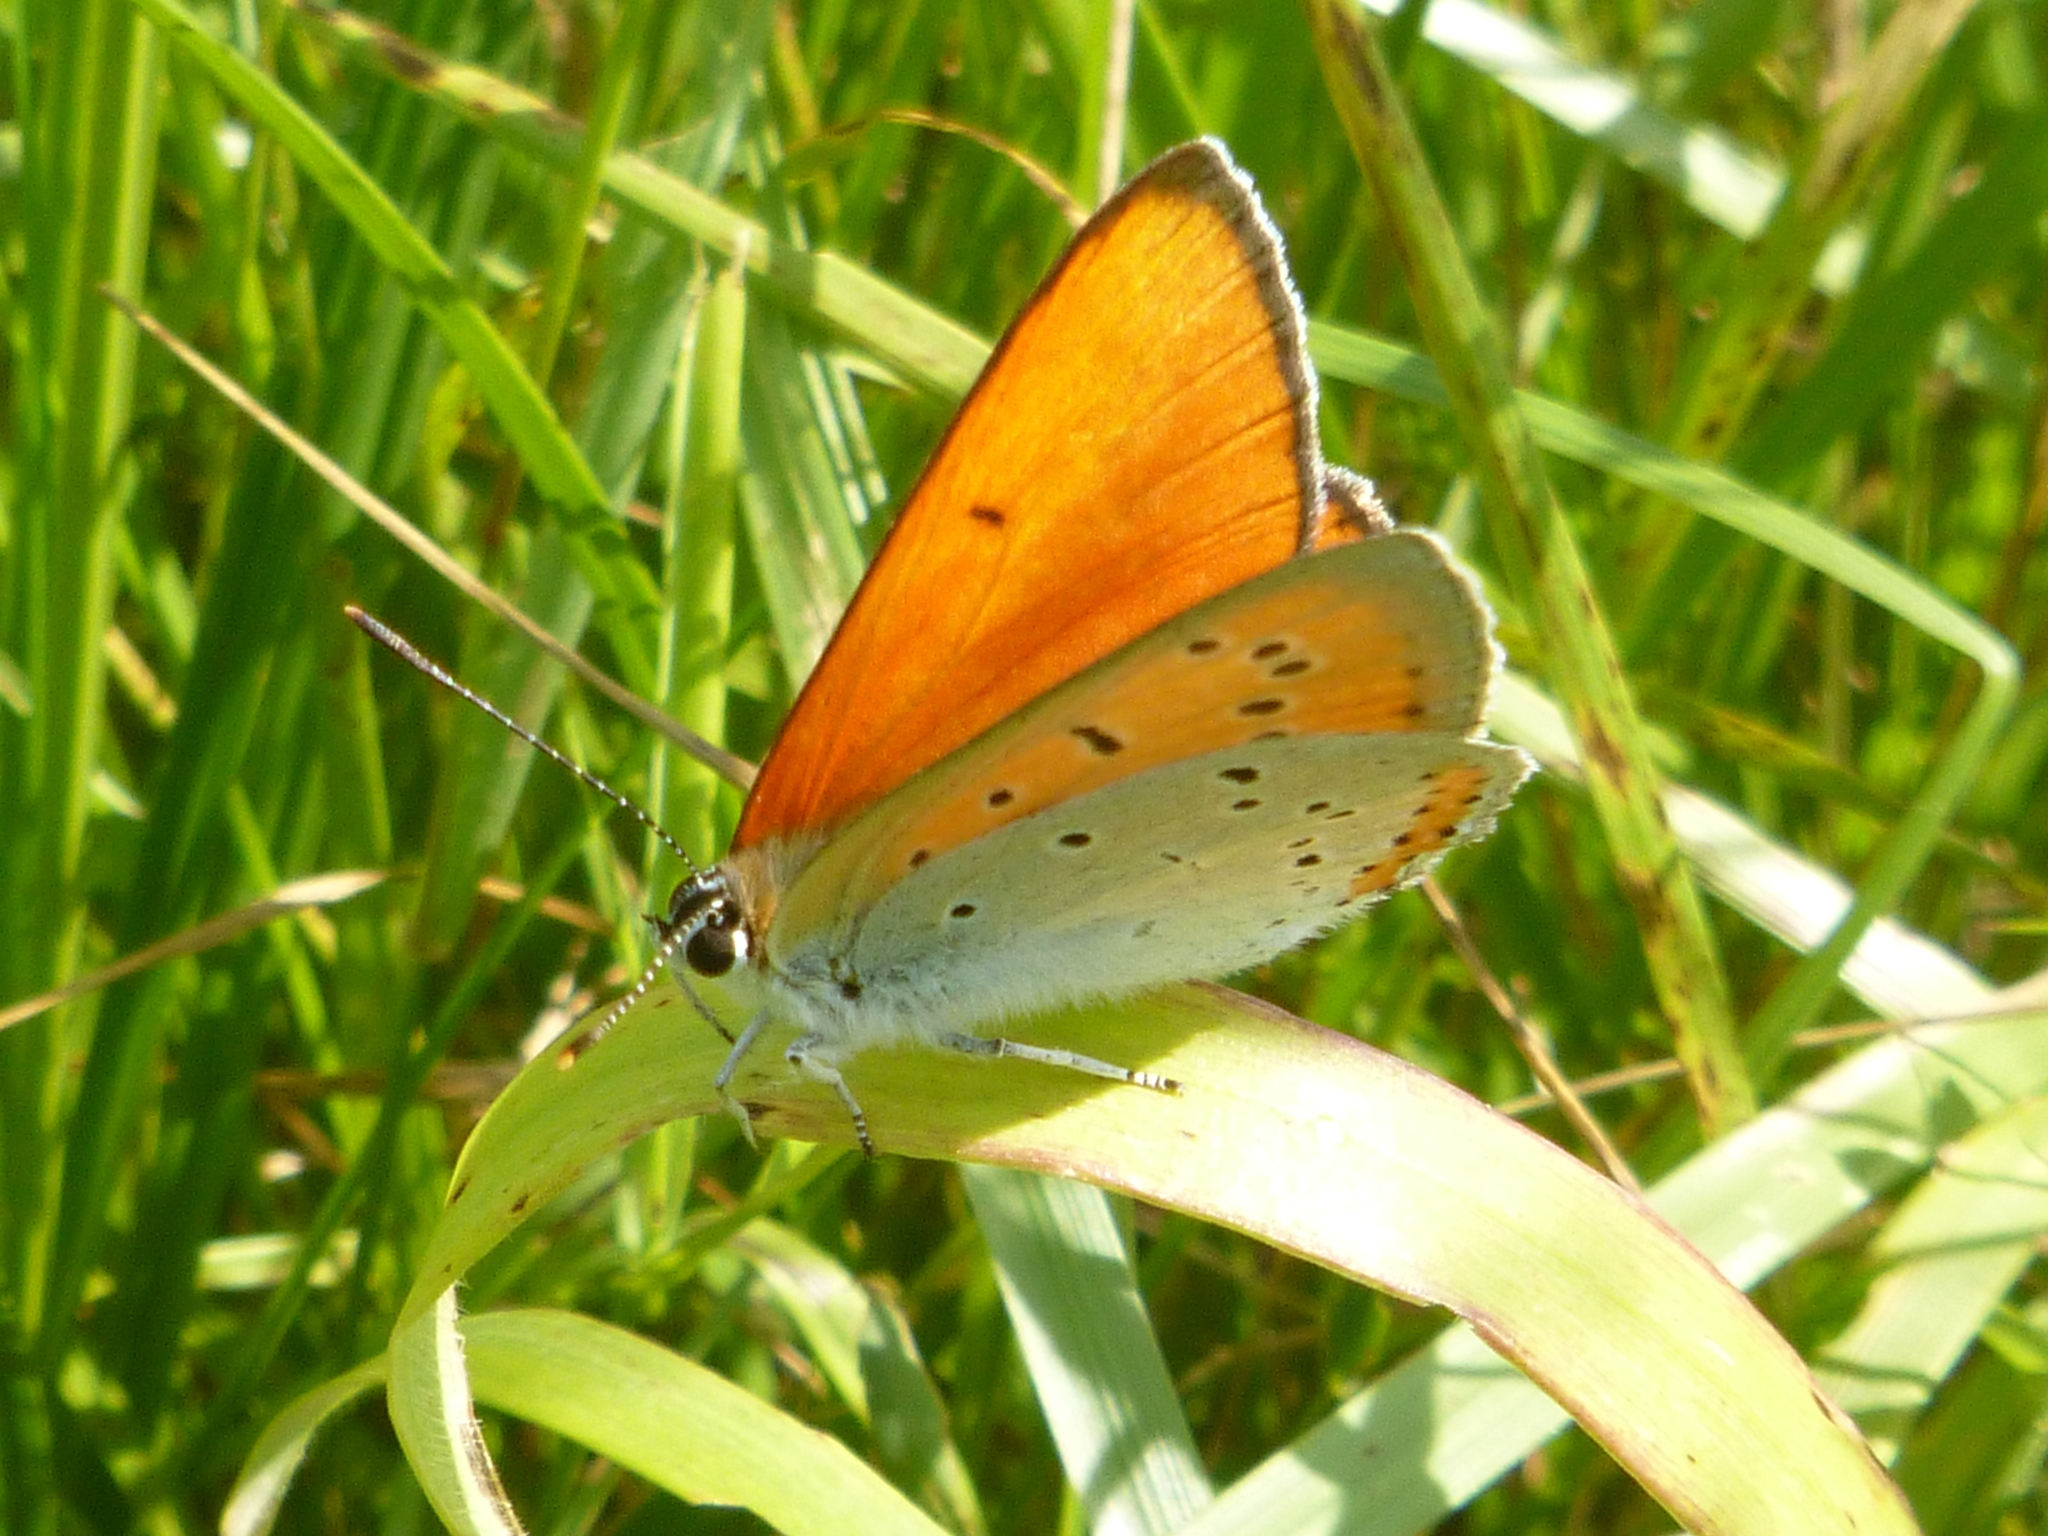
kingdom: Animalia
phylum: Arthropoda
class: Insecta
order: Lepidoptera
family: Lycaenidae
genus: Lycaena
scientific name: Lycaena dispar
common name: Large copper
